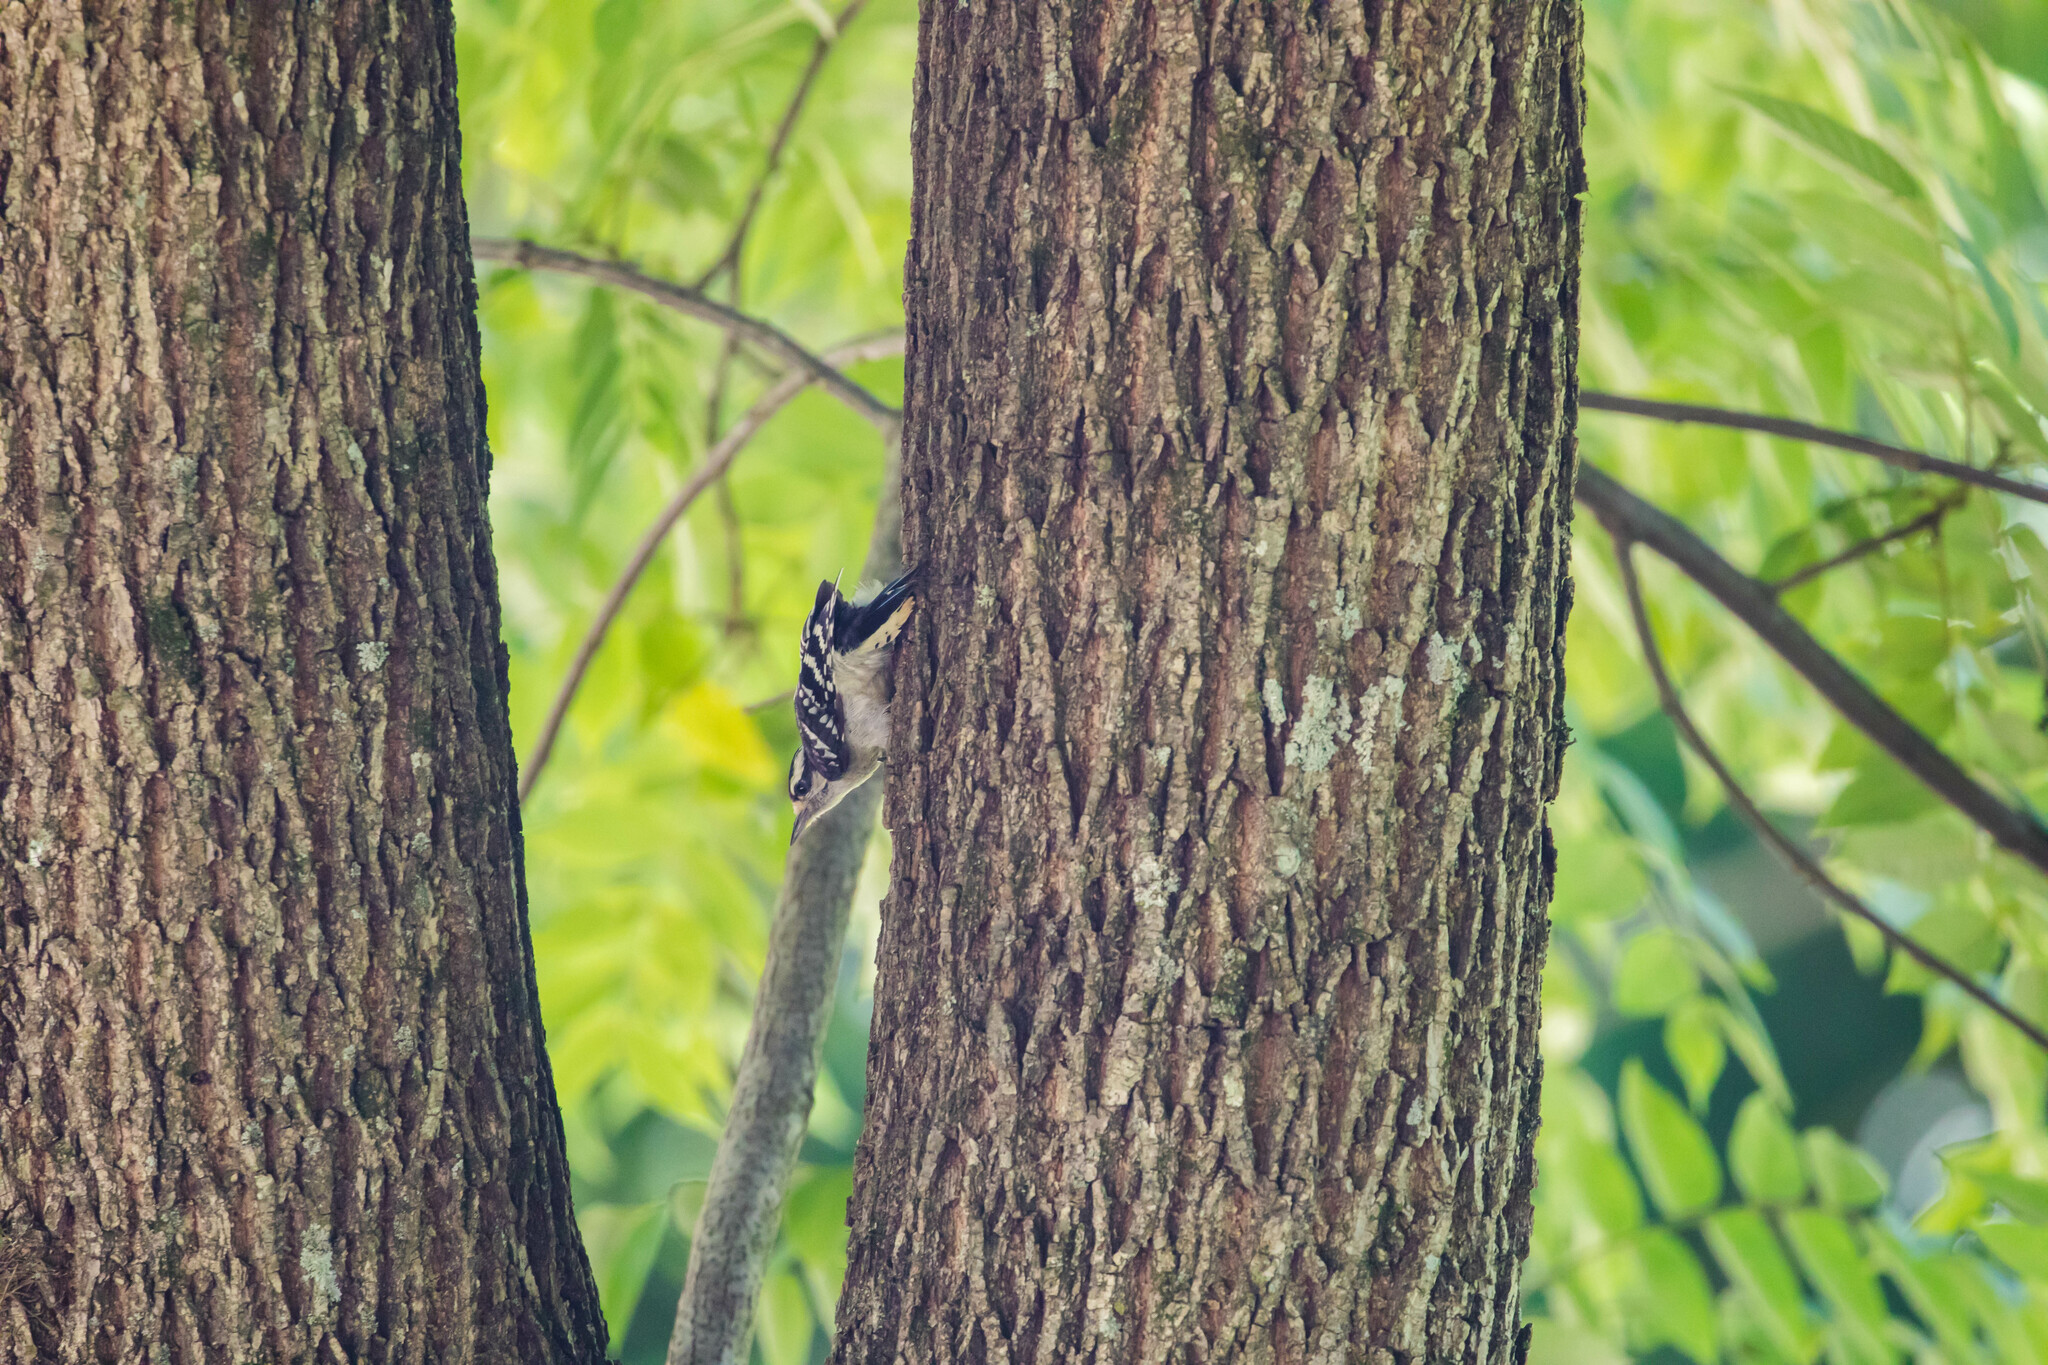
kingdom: Animalia
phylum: Chordata
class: Aves
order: Piciformes
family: Picidae
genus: Dryobates
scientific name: Dryobates pubescens
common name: Downy woodpecker
